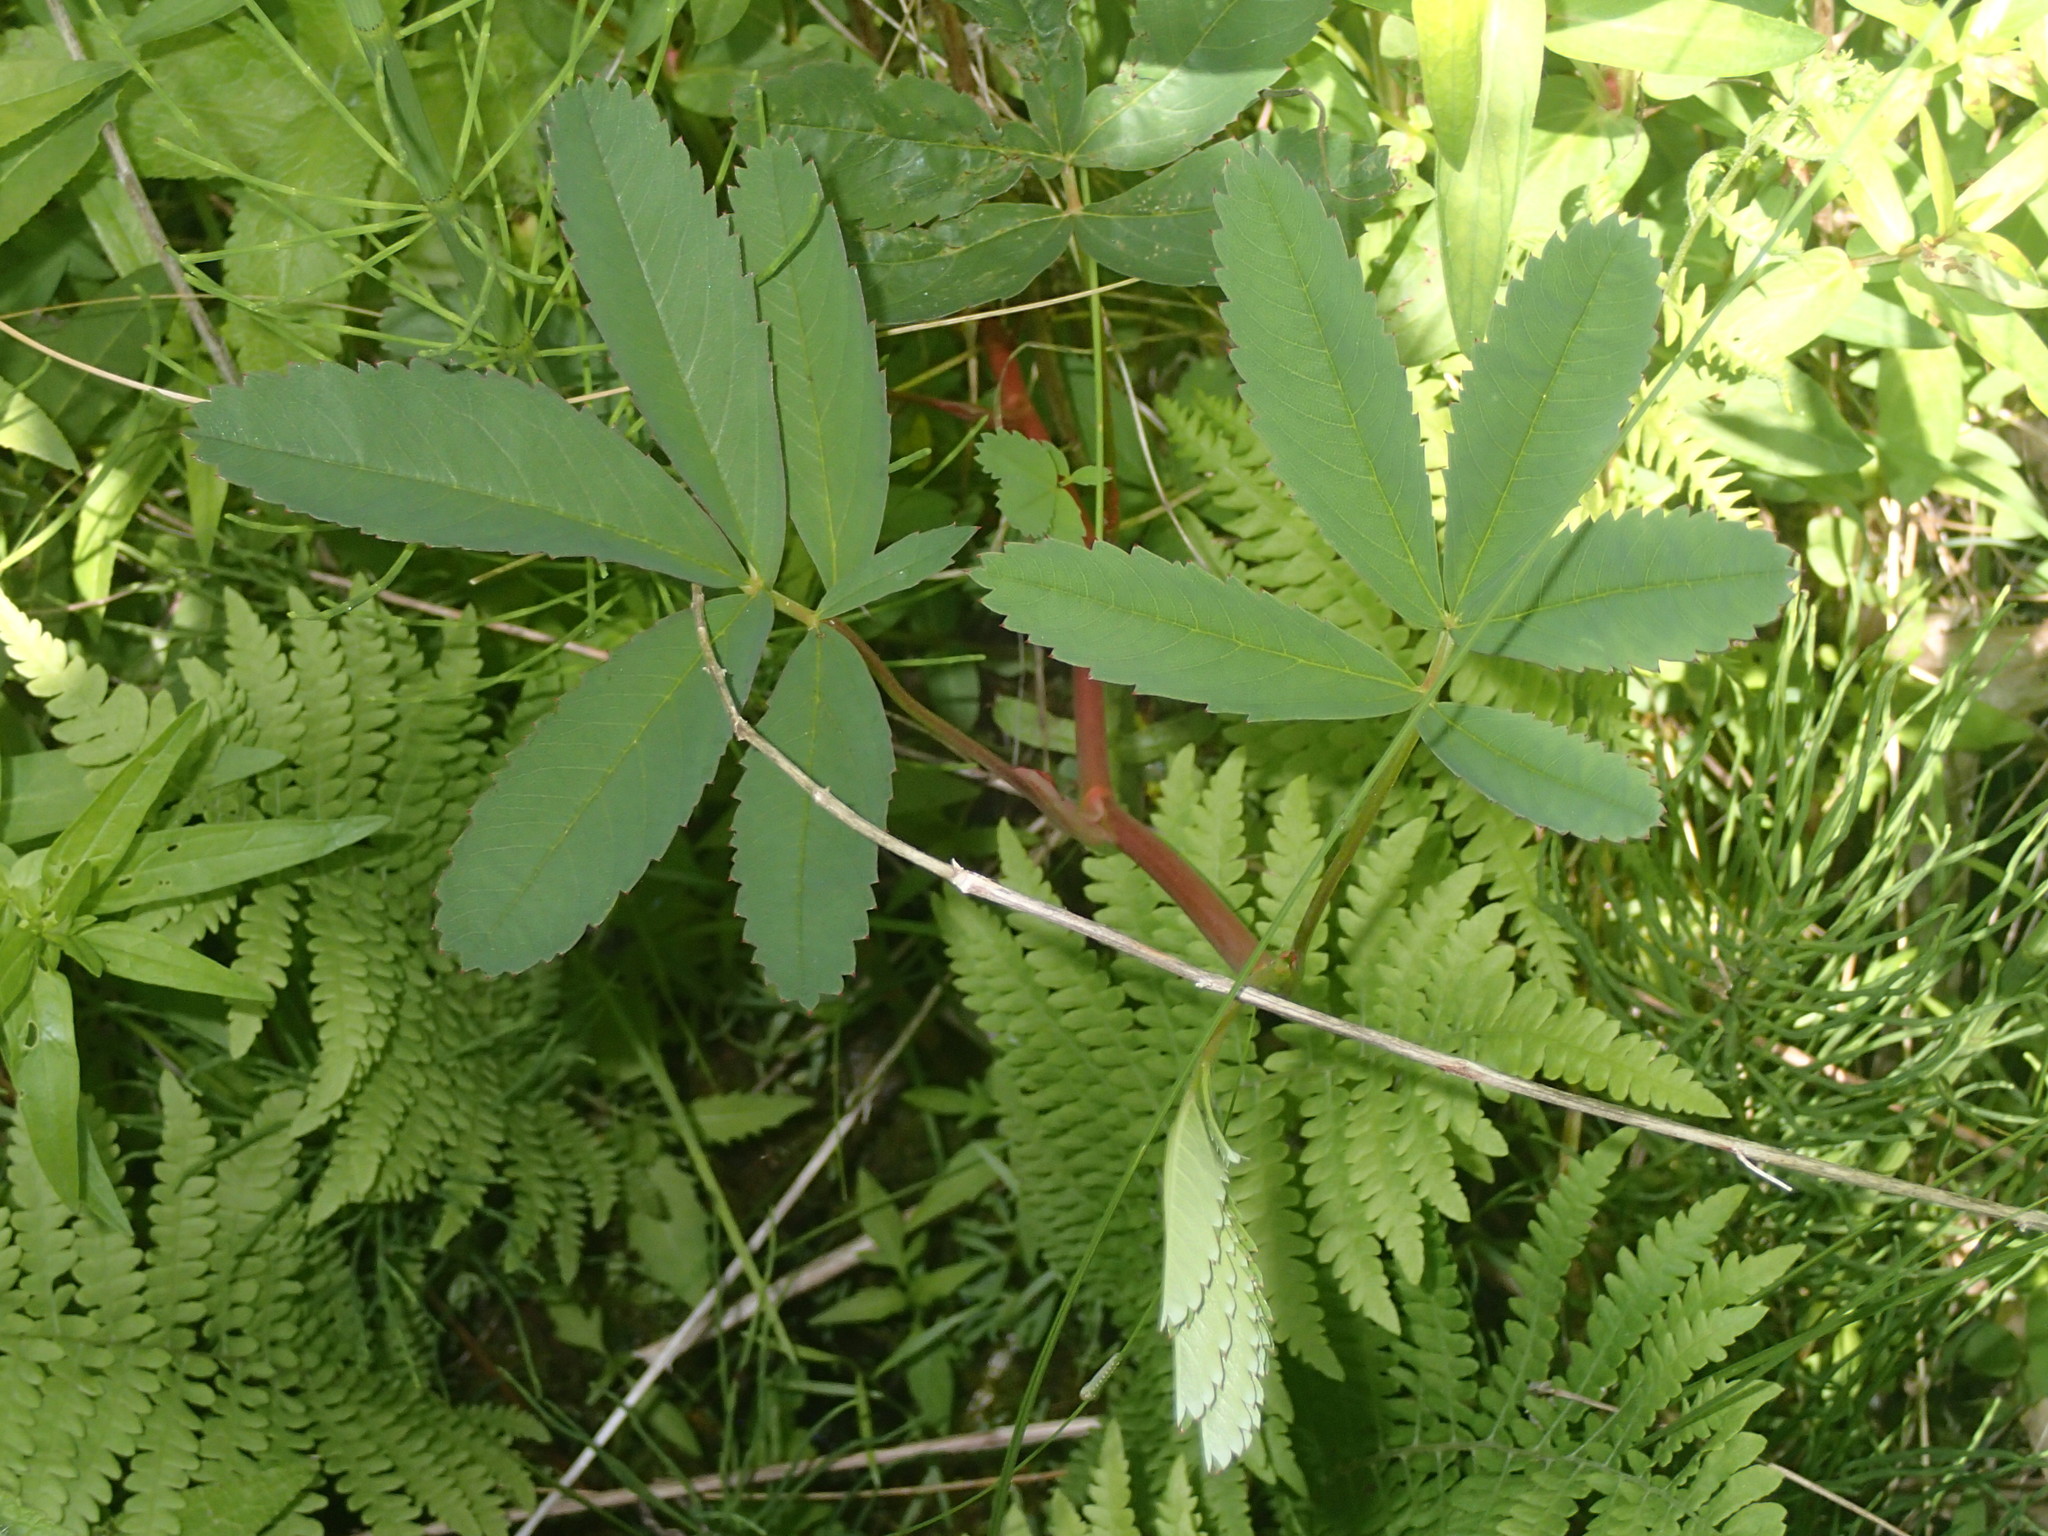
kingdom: Plantae
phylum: Tracheophyta
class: Magnoliopsida
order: Rosales
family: Rosaceae
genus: Comarum
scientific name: Comarum palustre
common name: Marsh cinquefoil
